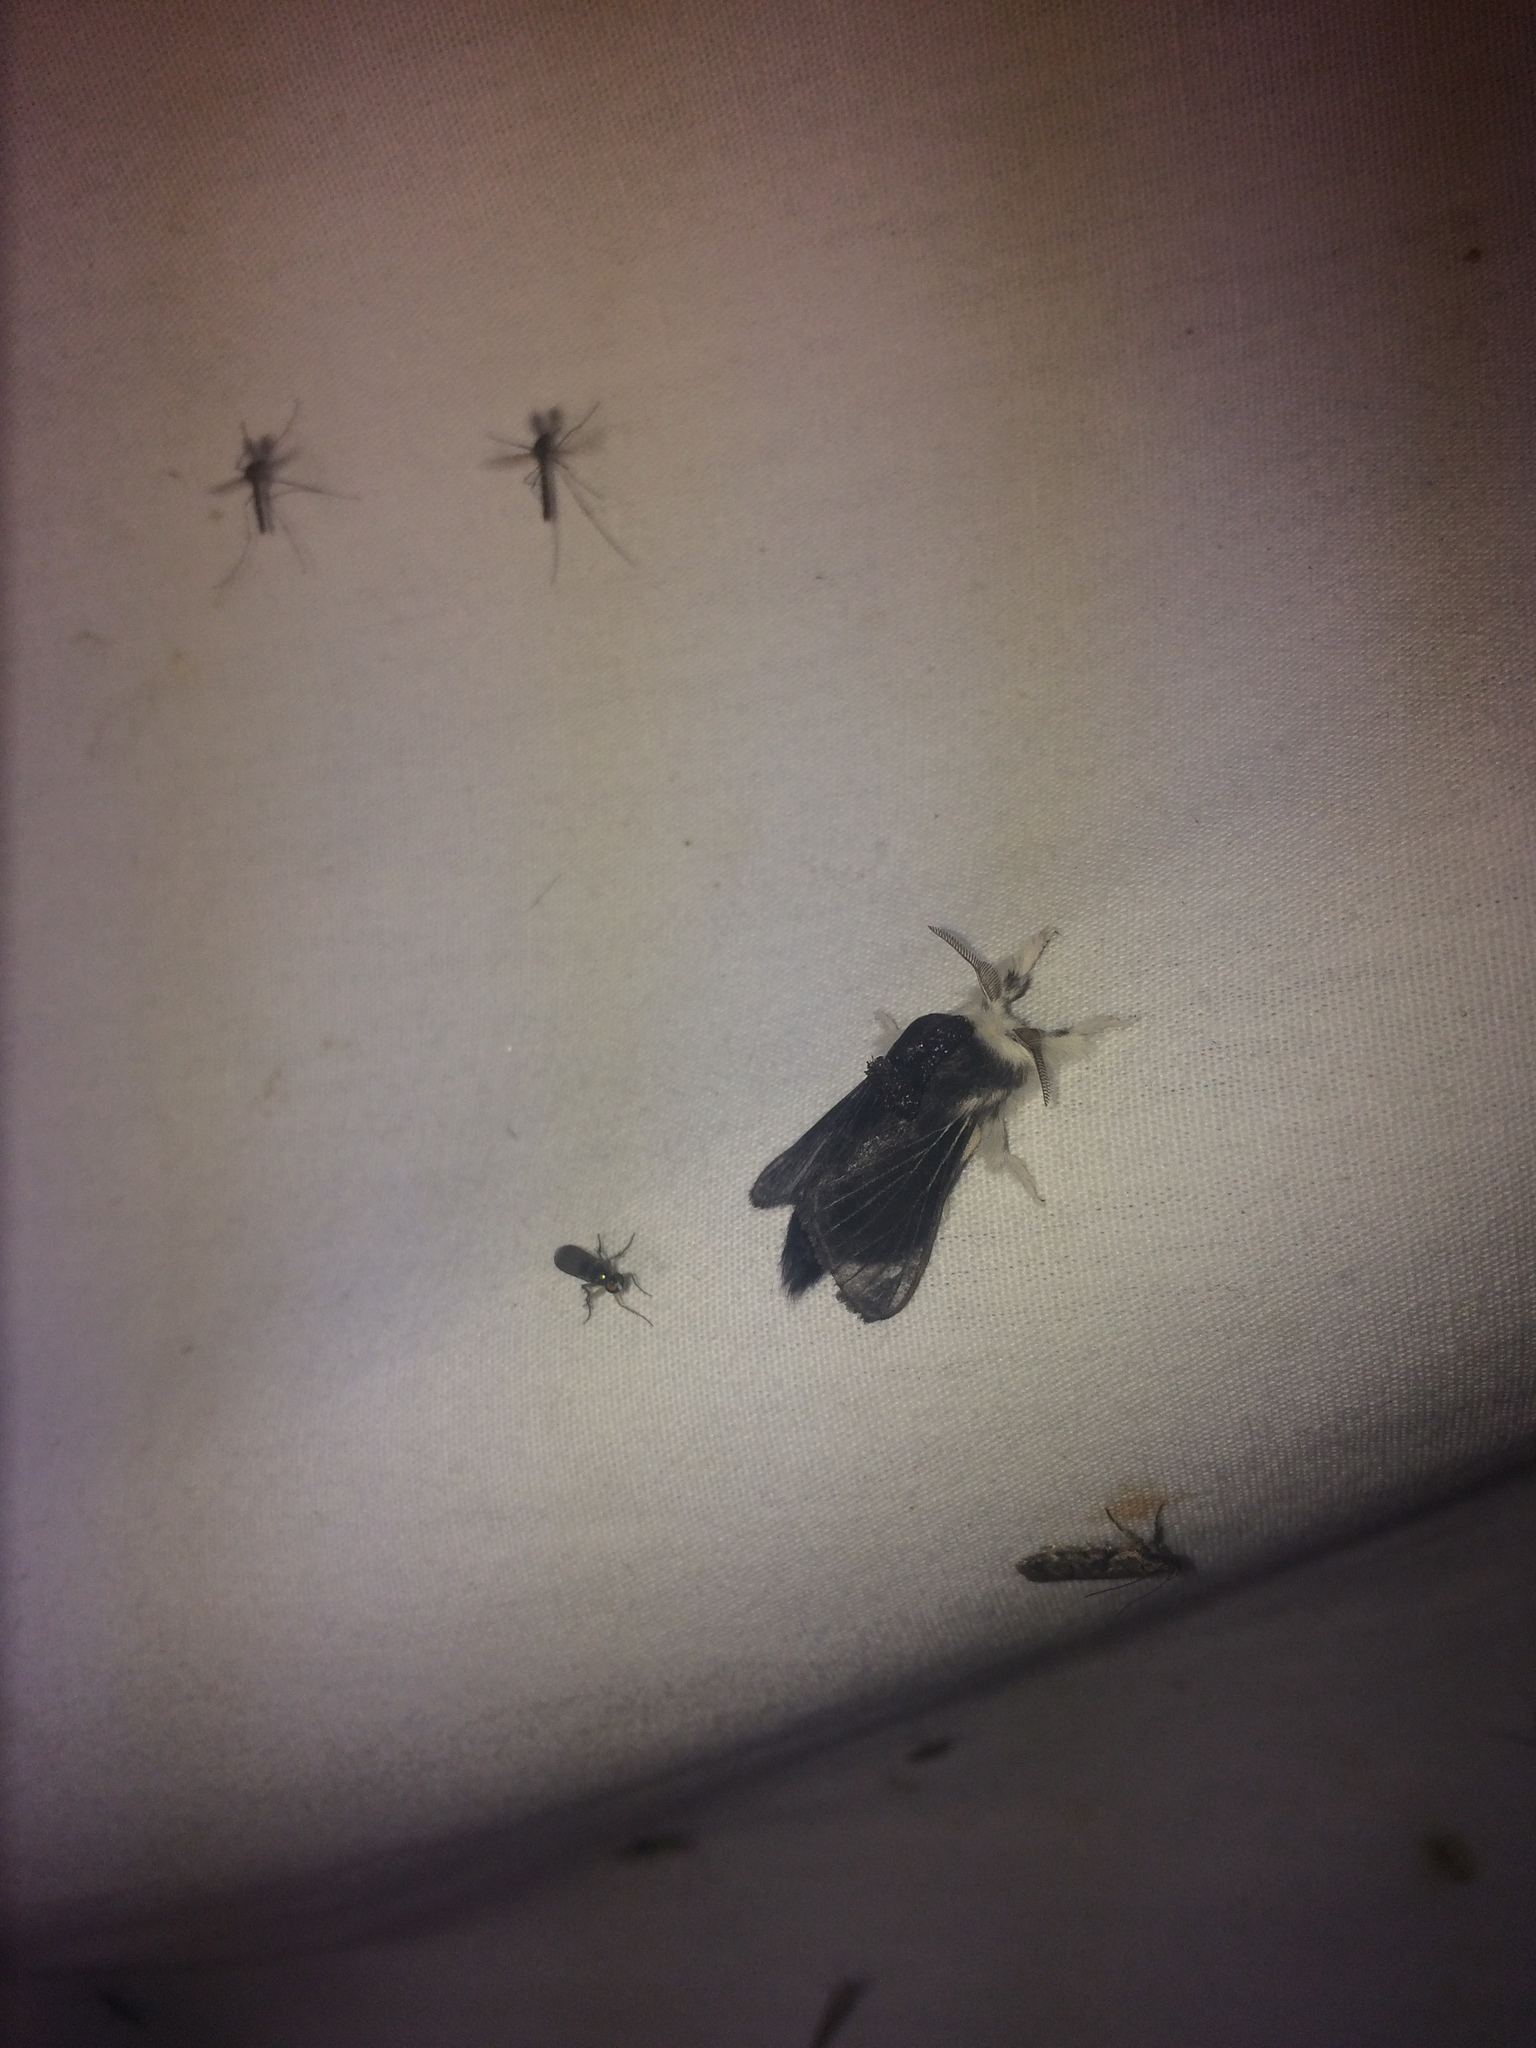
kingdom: Animalia
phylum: Arthropoda
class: Insecta
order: Lepidoptera
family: Lasiocampidae
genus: Tolype
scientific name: Tolype laricis
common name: Larch tolype moth
